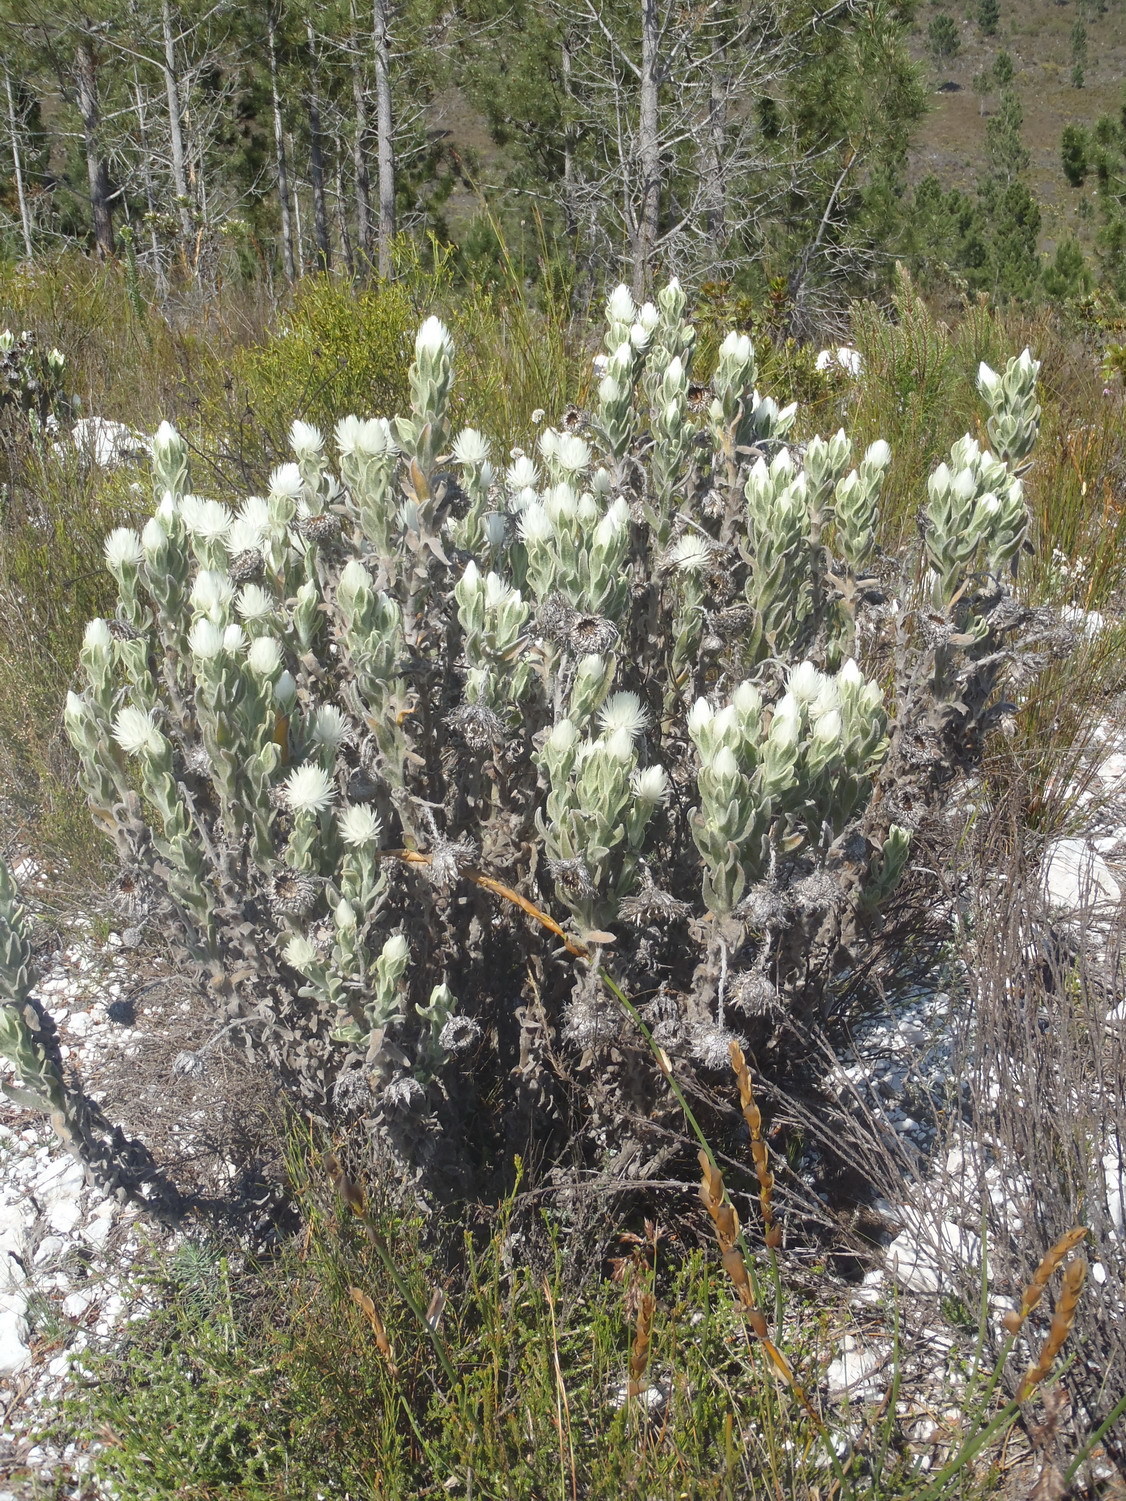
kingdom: Plantae
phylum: Tracheophyta
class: Magnoliopsida
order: Asterales
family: Asteraceae
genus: Syncarpha
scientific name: Syncarpha vestita
